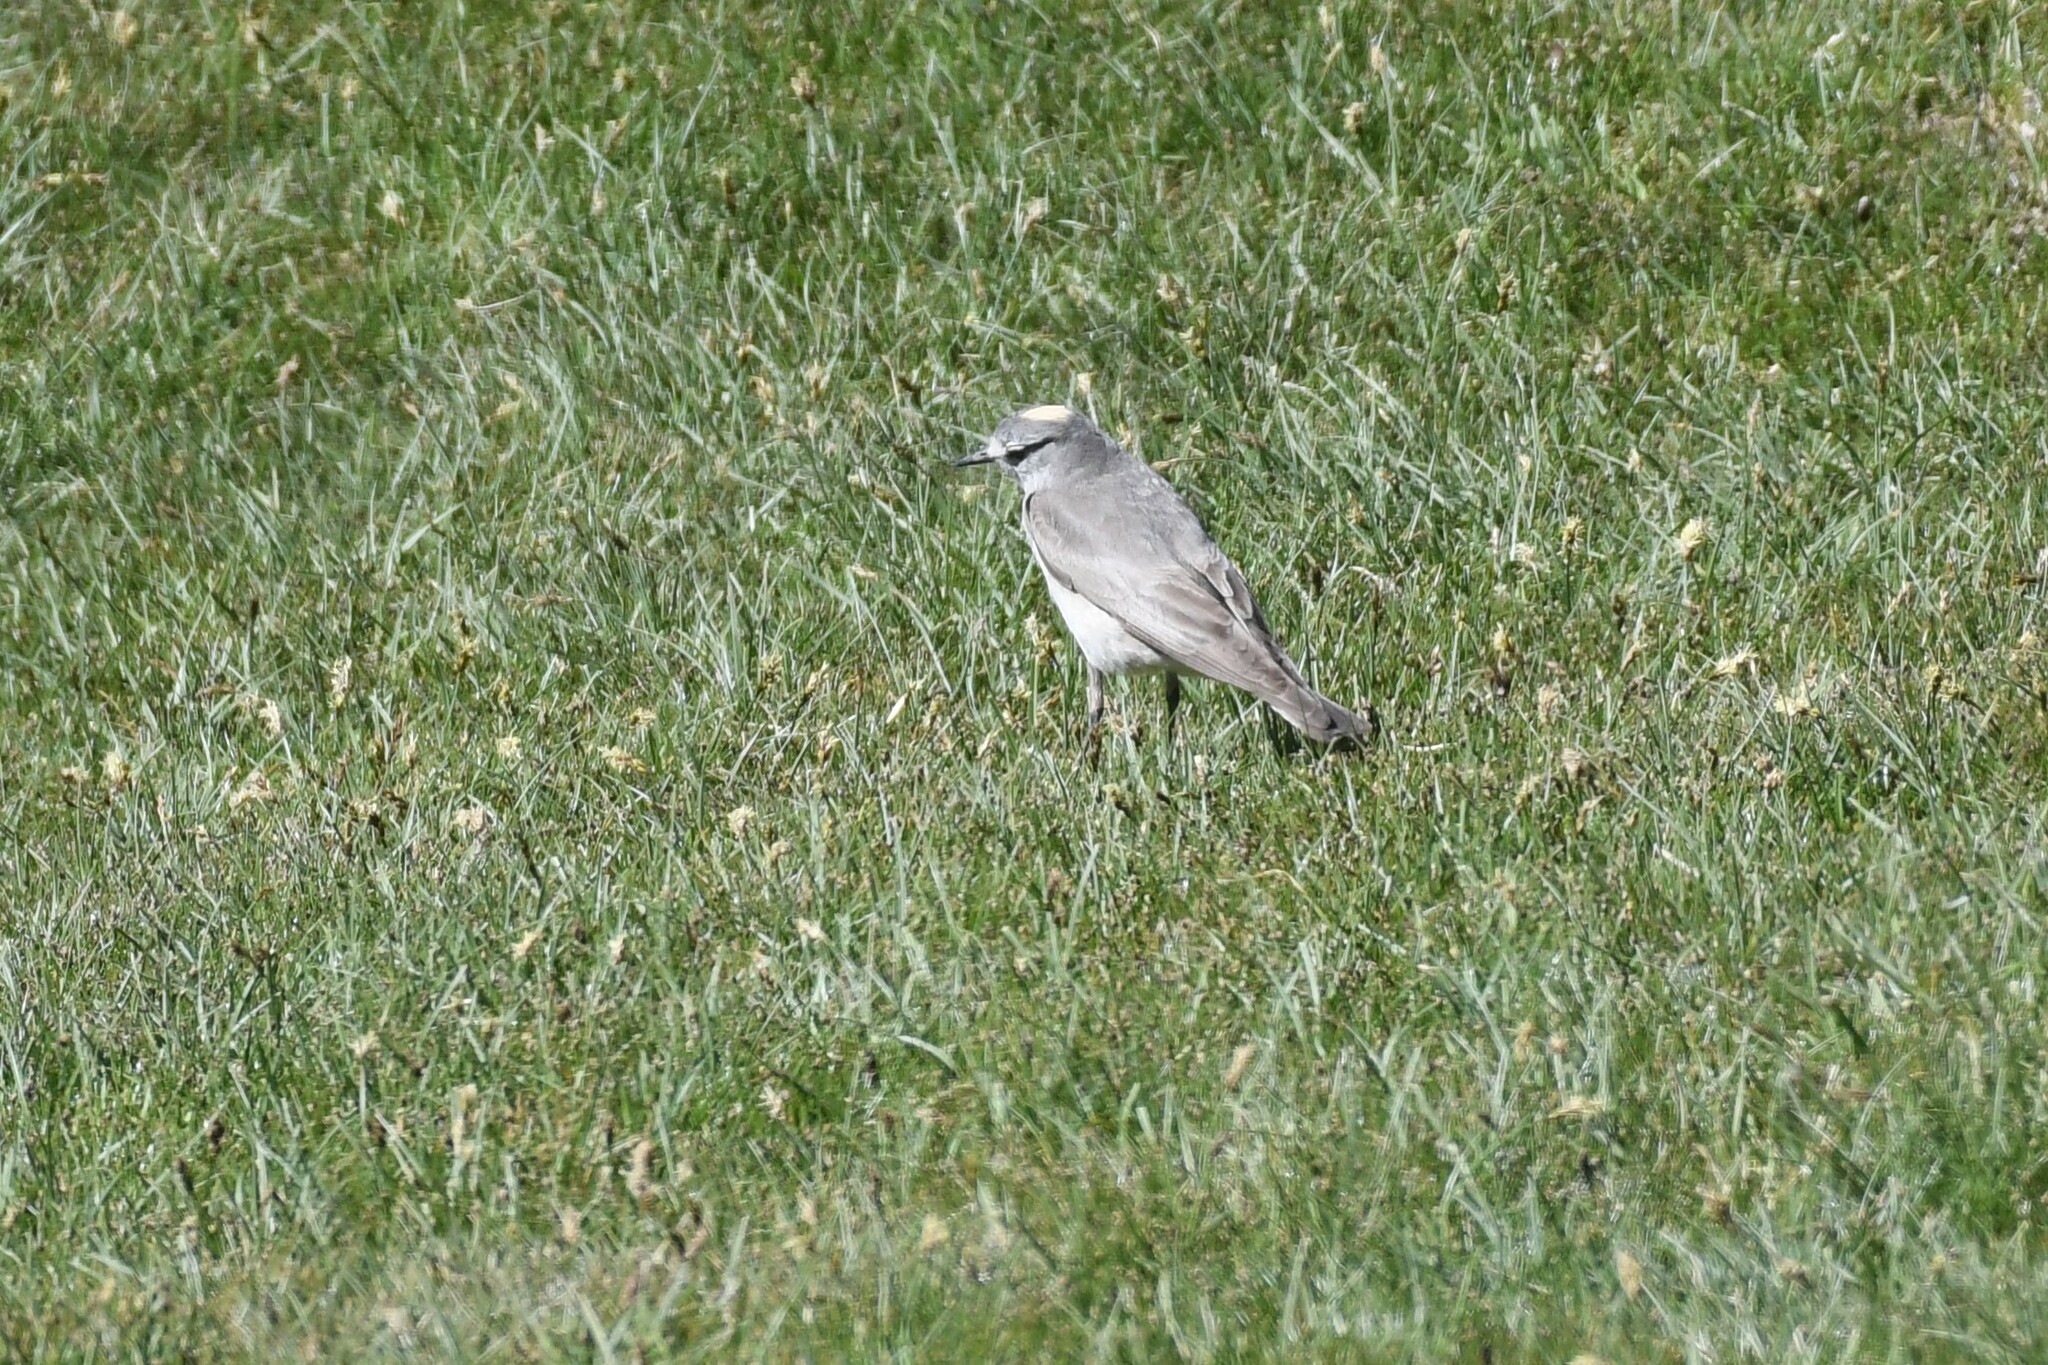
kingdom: Animalia
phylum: Chordata
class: Aves
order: Passeriformes
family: Tyrannidae
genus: Muscisaxicola
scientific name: Muscisaxicola flavinucha
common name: Ochre-naped ground tyrant
